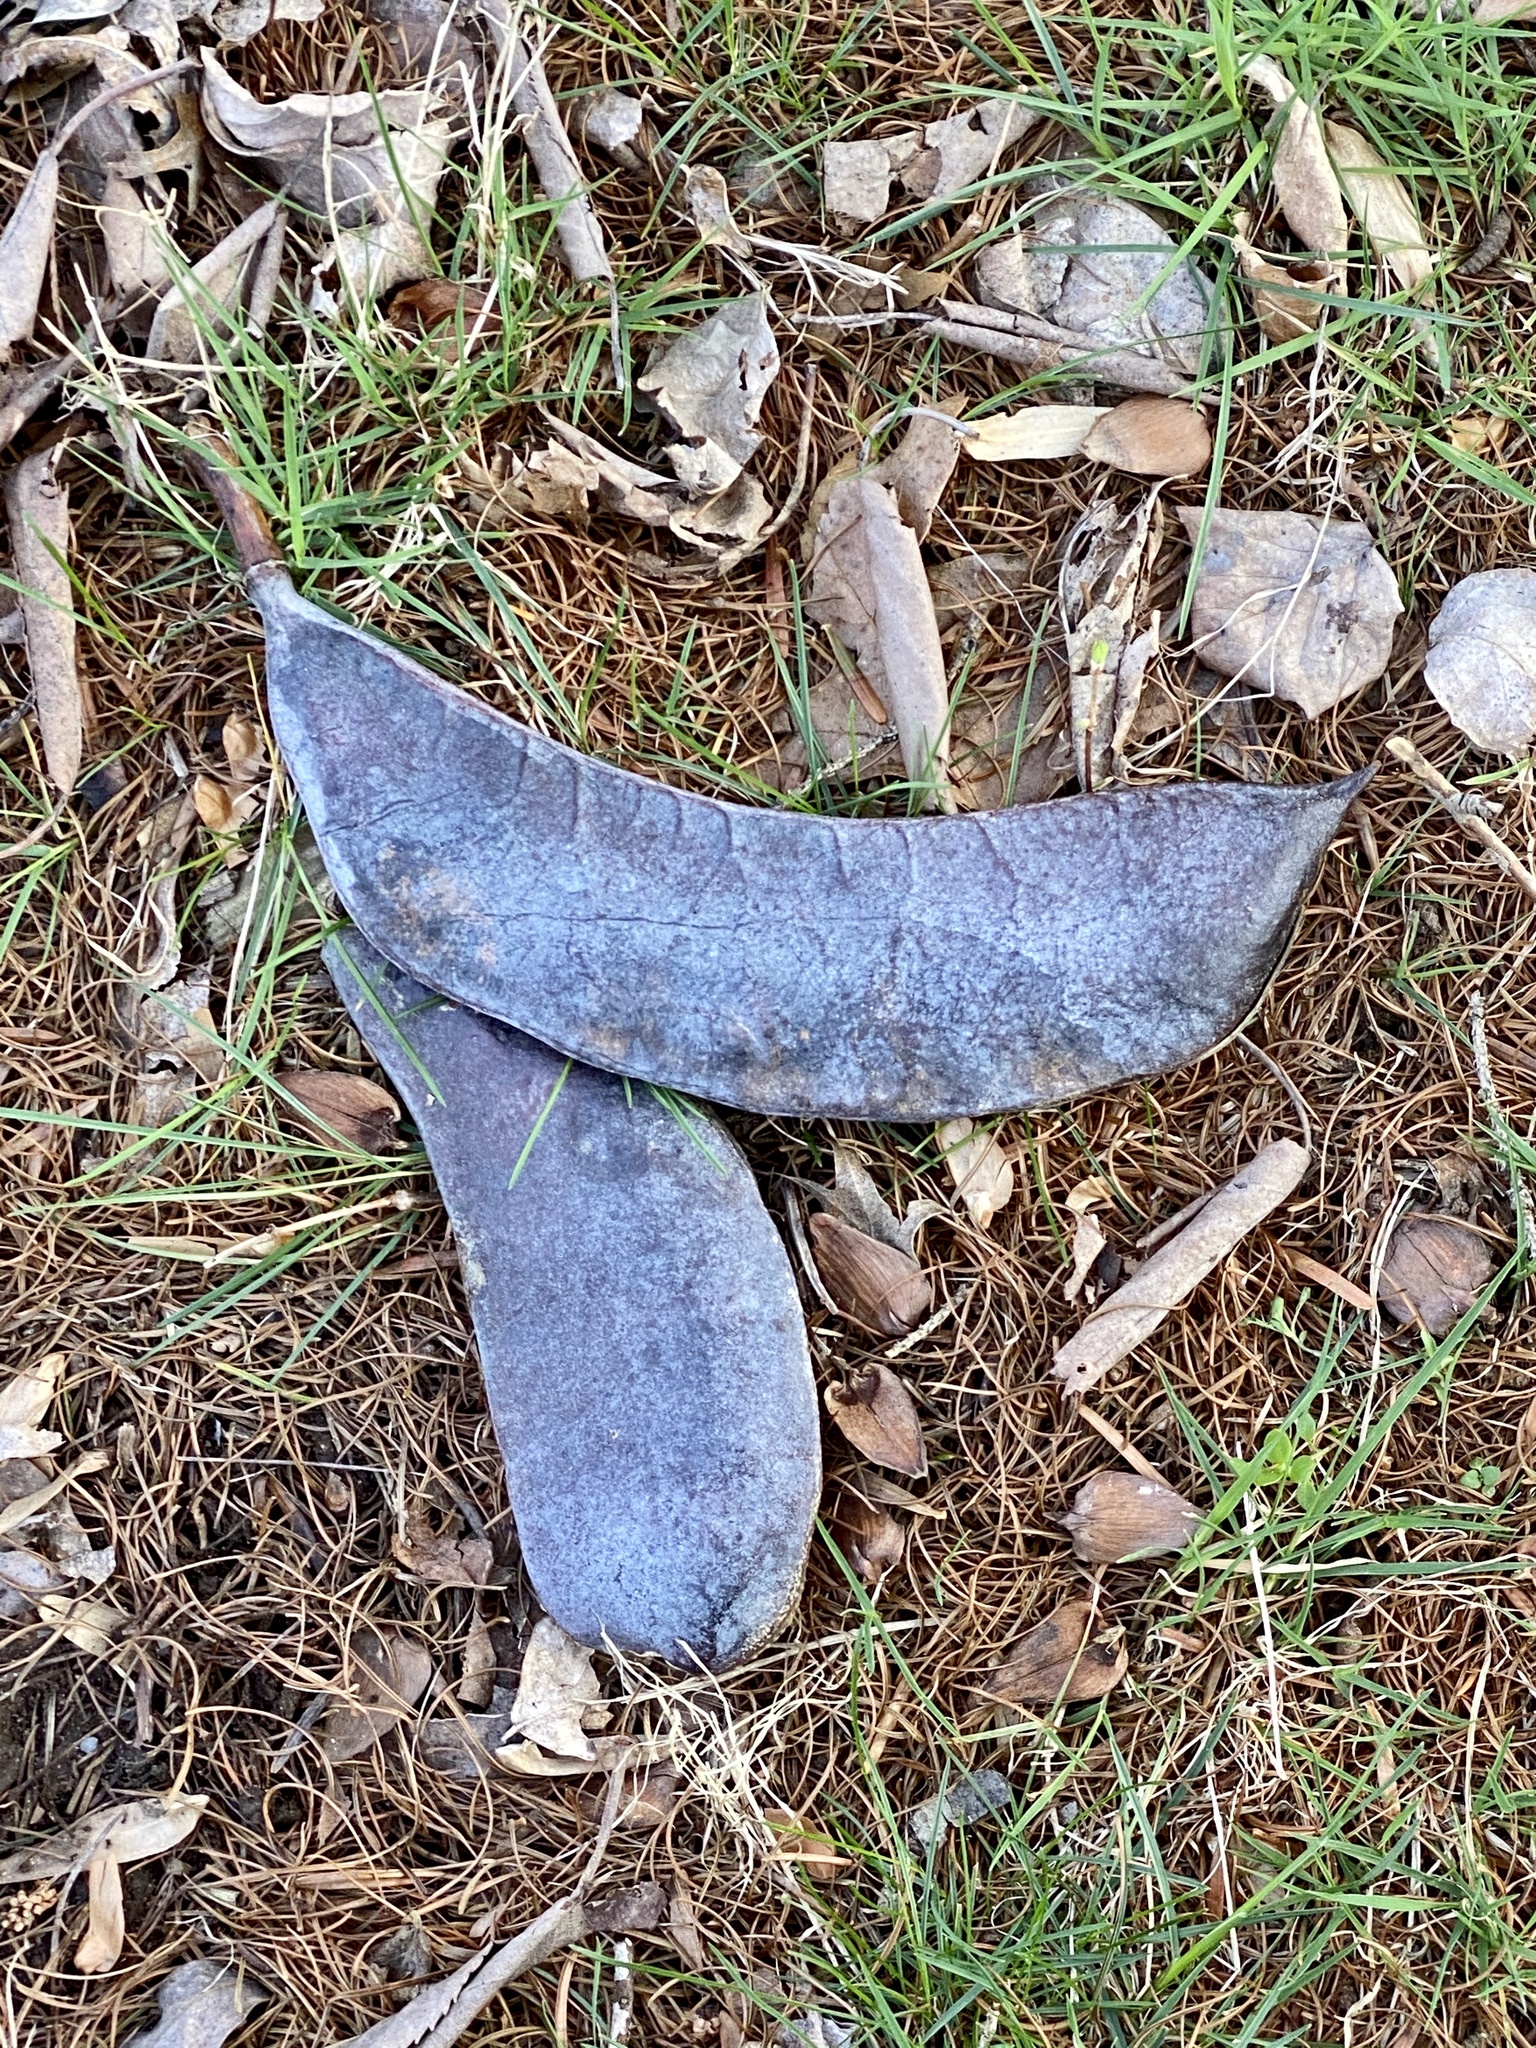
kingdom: Plantae
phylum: Tracheophyta
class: Magnoliopsida
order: Fabales
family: Fabaceae
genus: Gymnocladus
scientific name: Gymnocladus dioicus
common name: Kentucky coffee-tree
